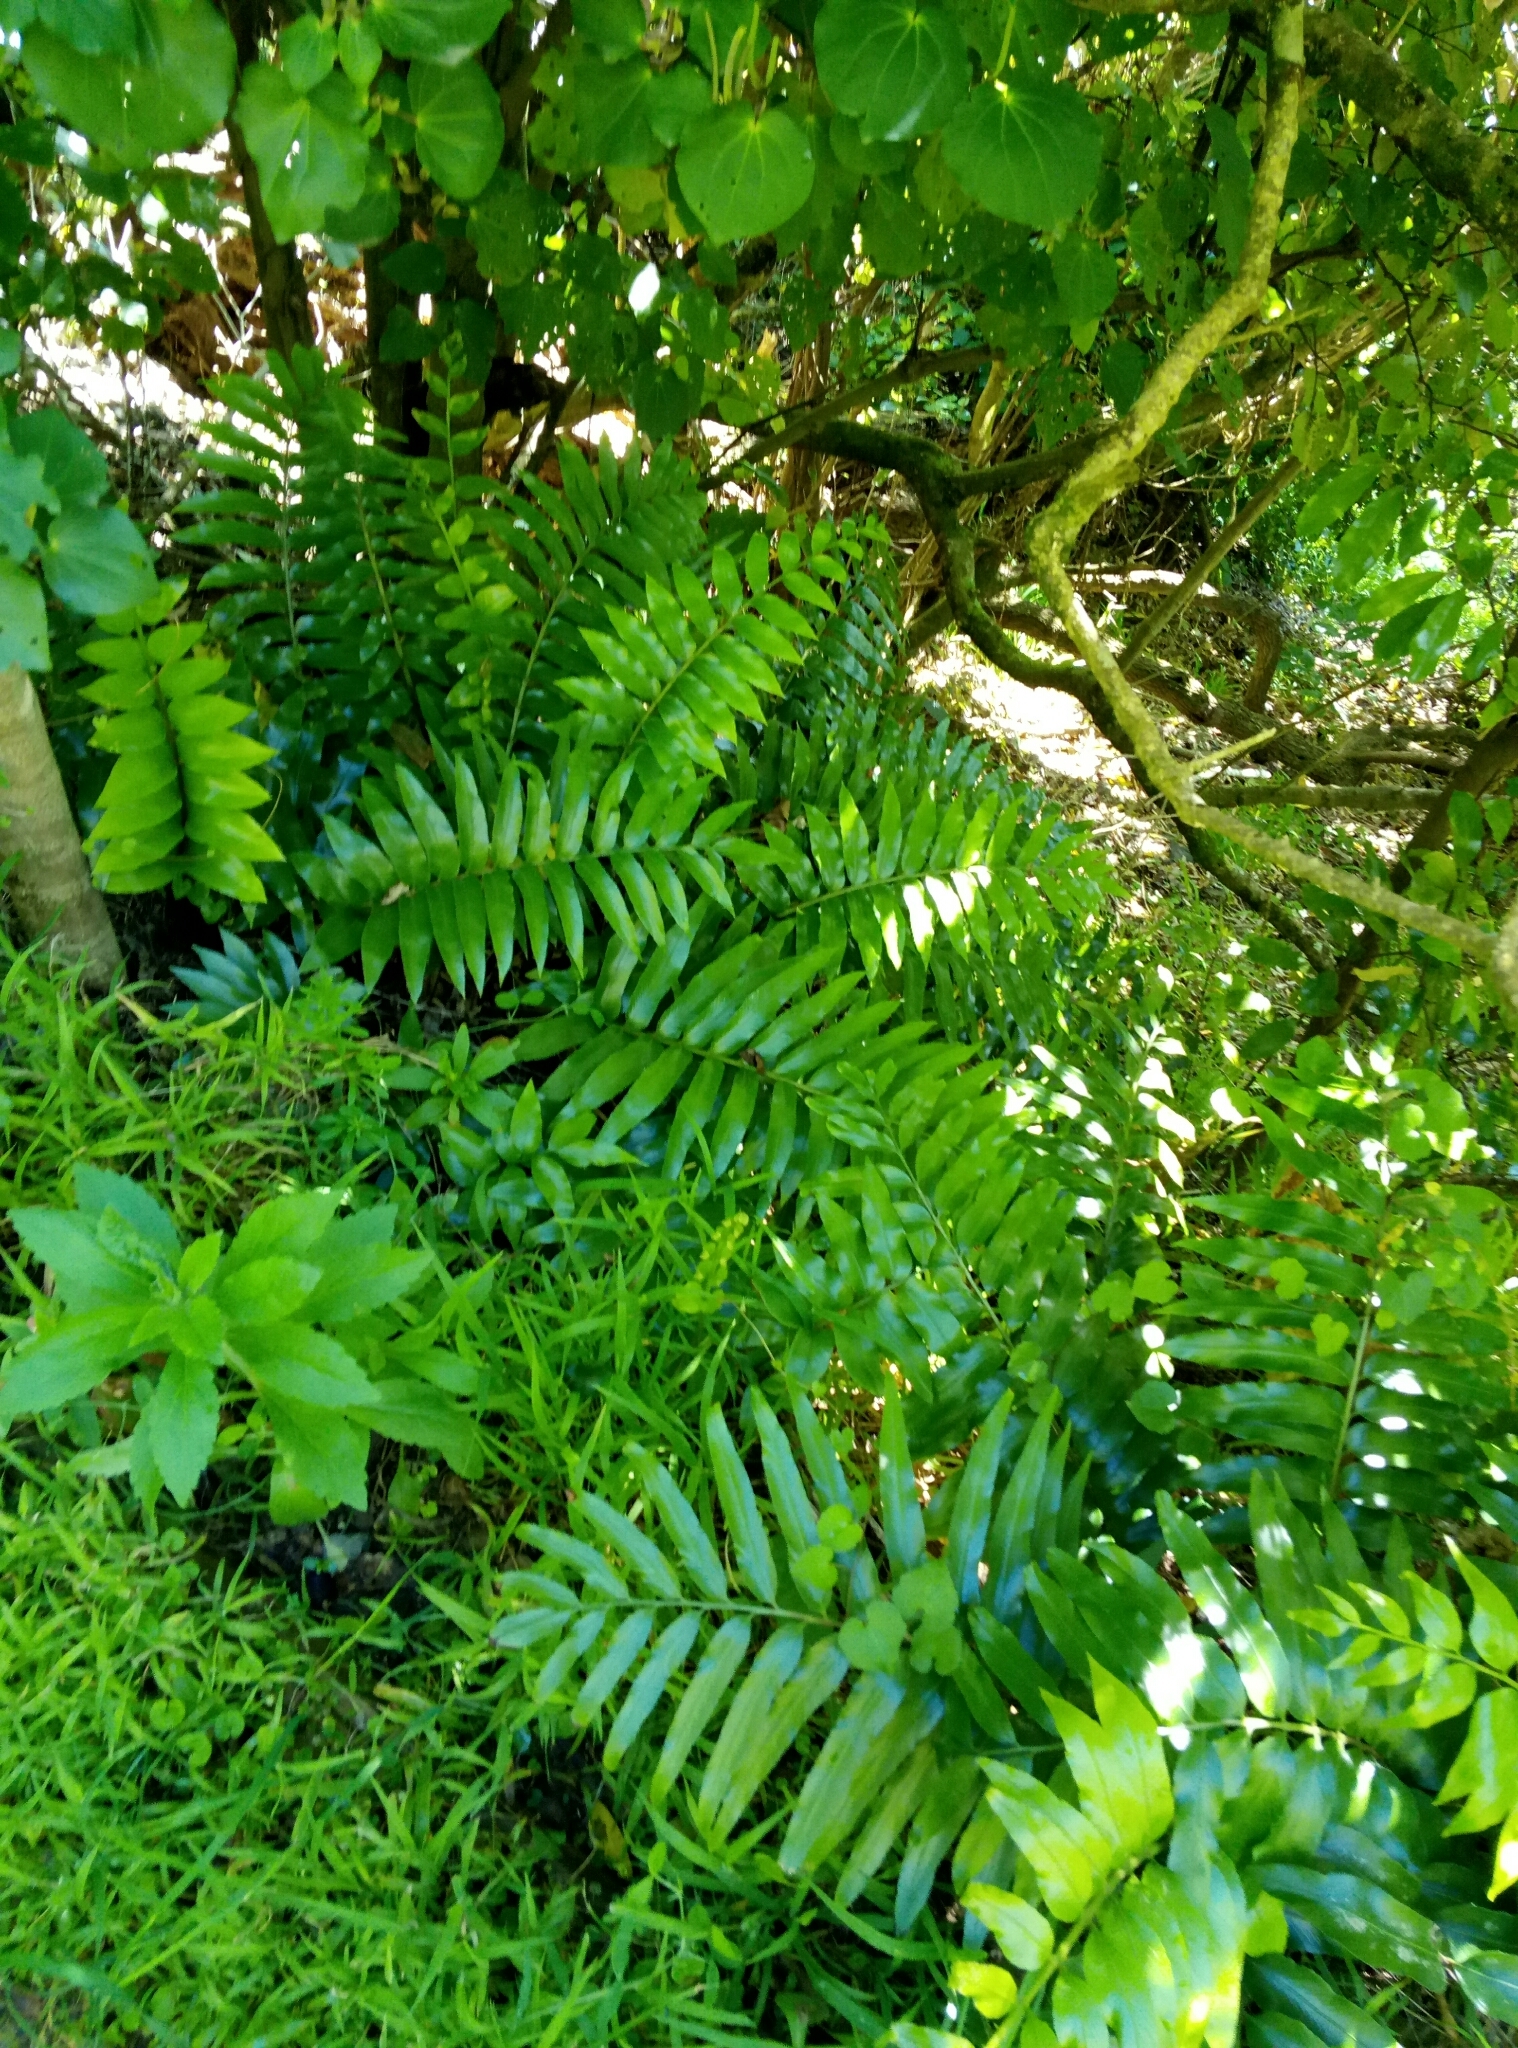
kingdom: Plantae
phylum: Tracheophyta
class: Polypodiopsida
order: Polypodiales
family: Aspleniaceae
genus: Asplenium
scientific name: Asplenium oblongifolium
